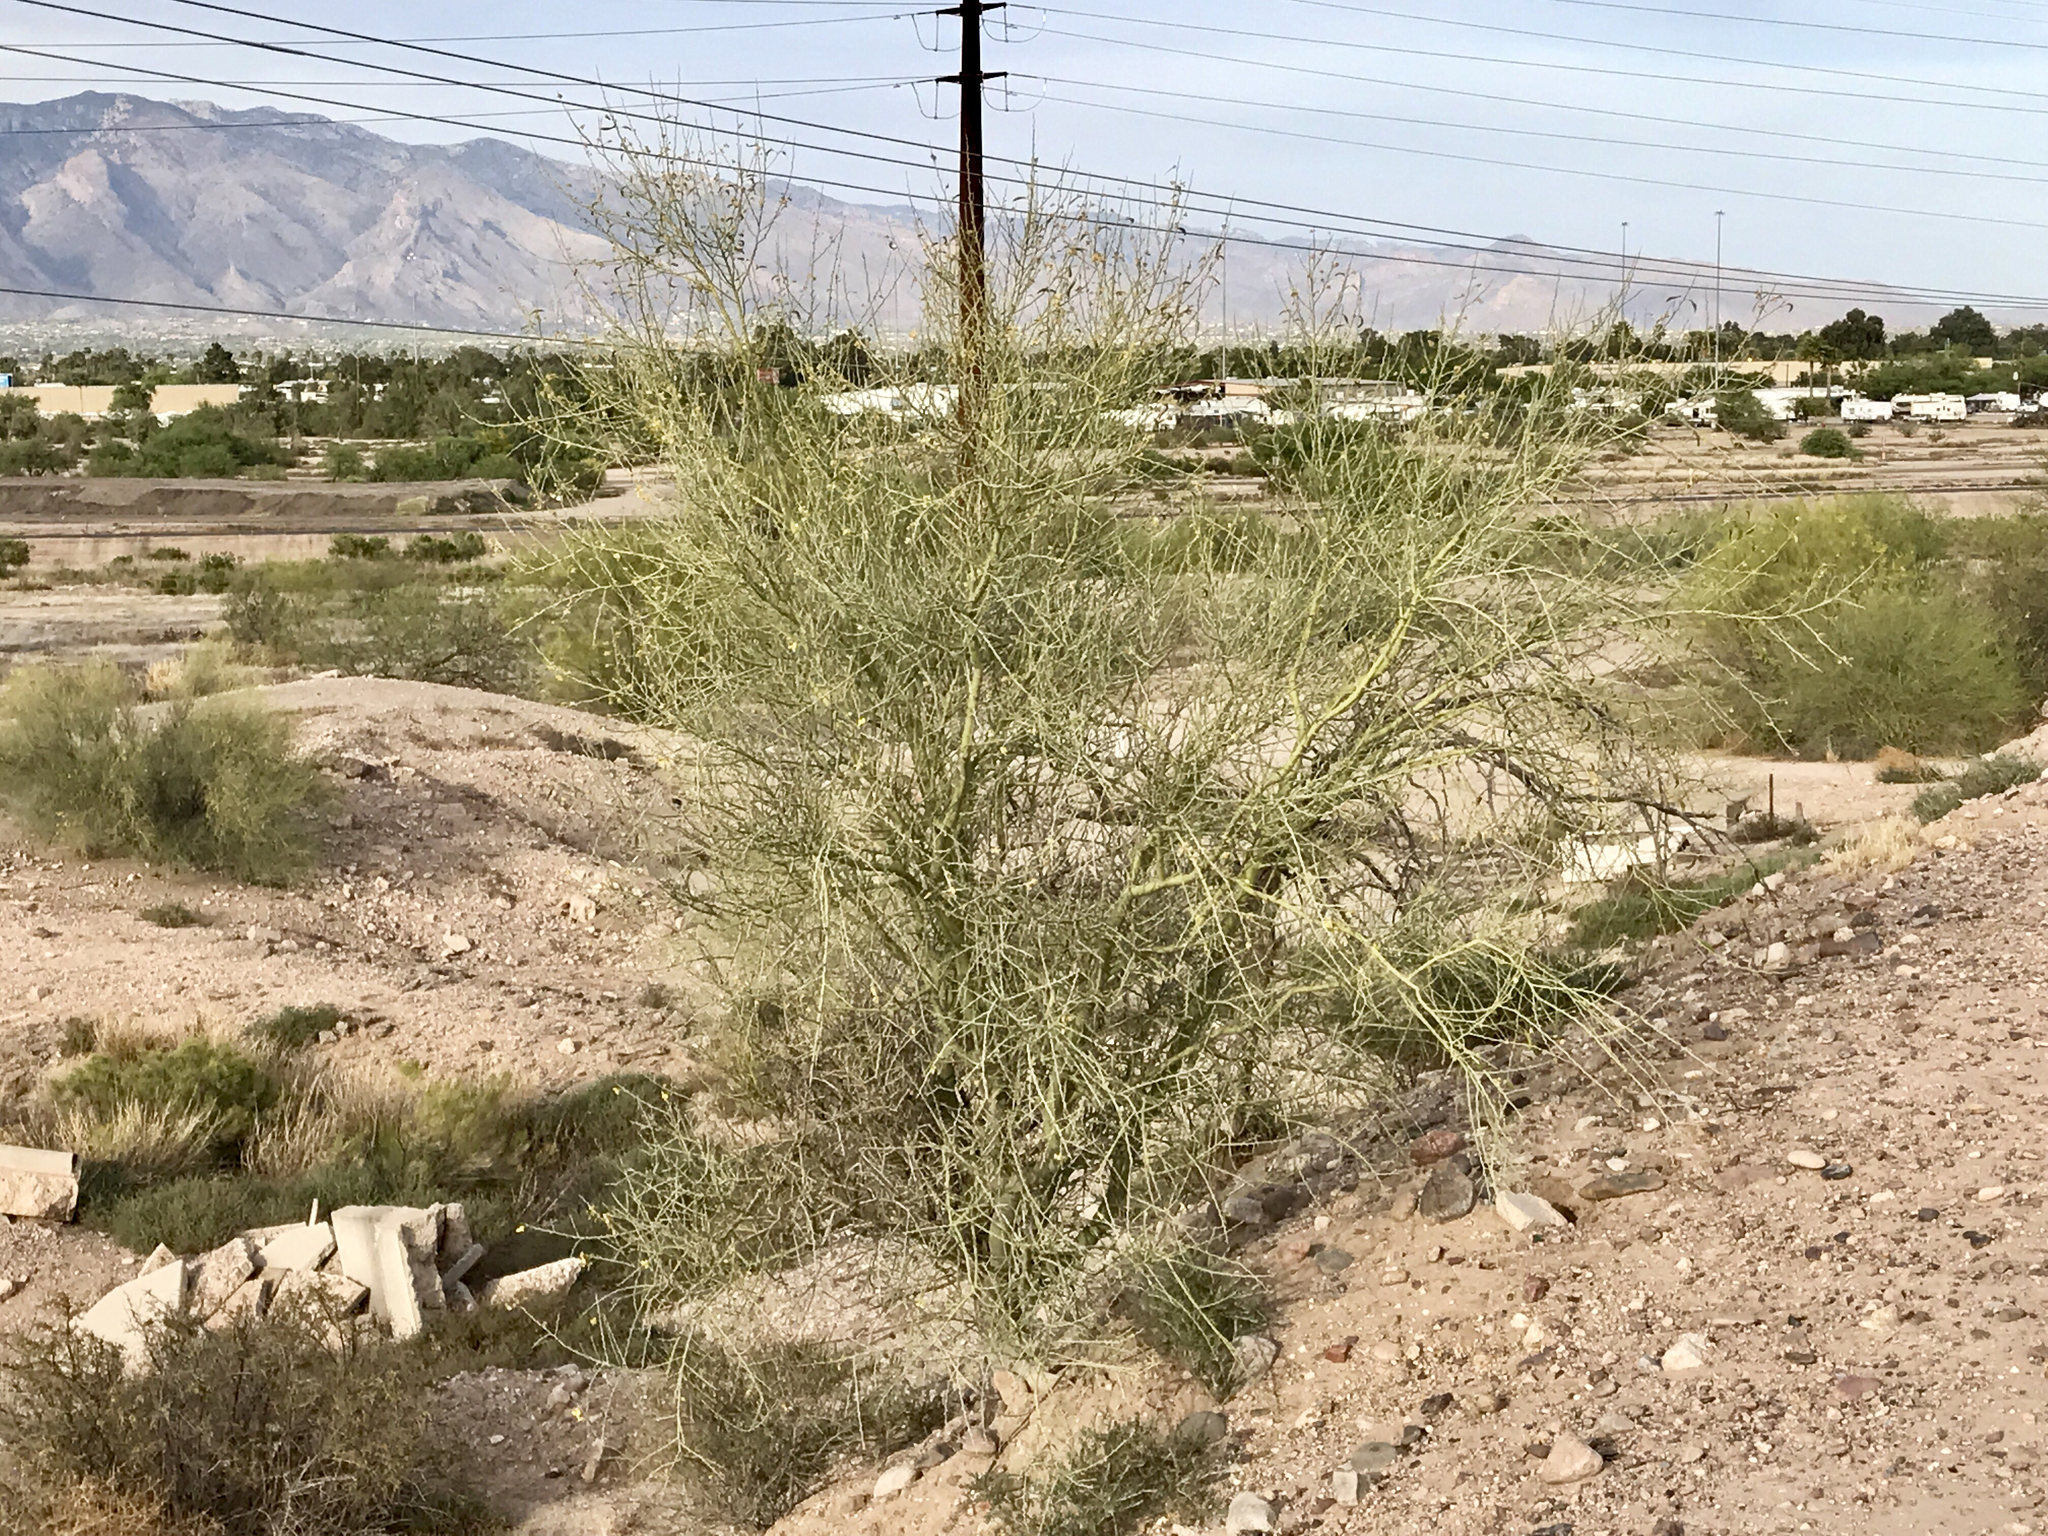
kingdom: Plantae
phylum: Tracheophyta
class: Magnoliopsida
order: Fabales
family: Fabaceae
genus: Parkinsonia
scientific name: Parkinsonia florida
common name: Blue paloverde
